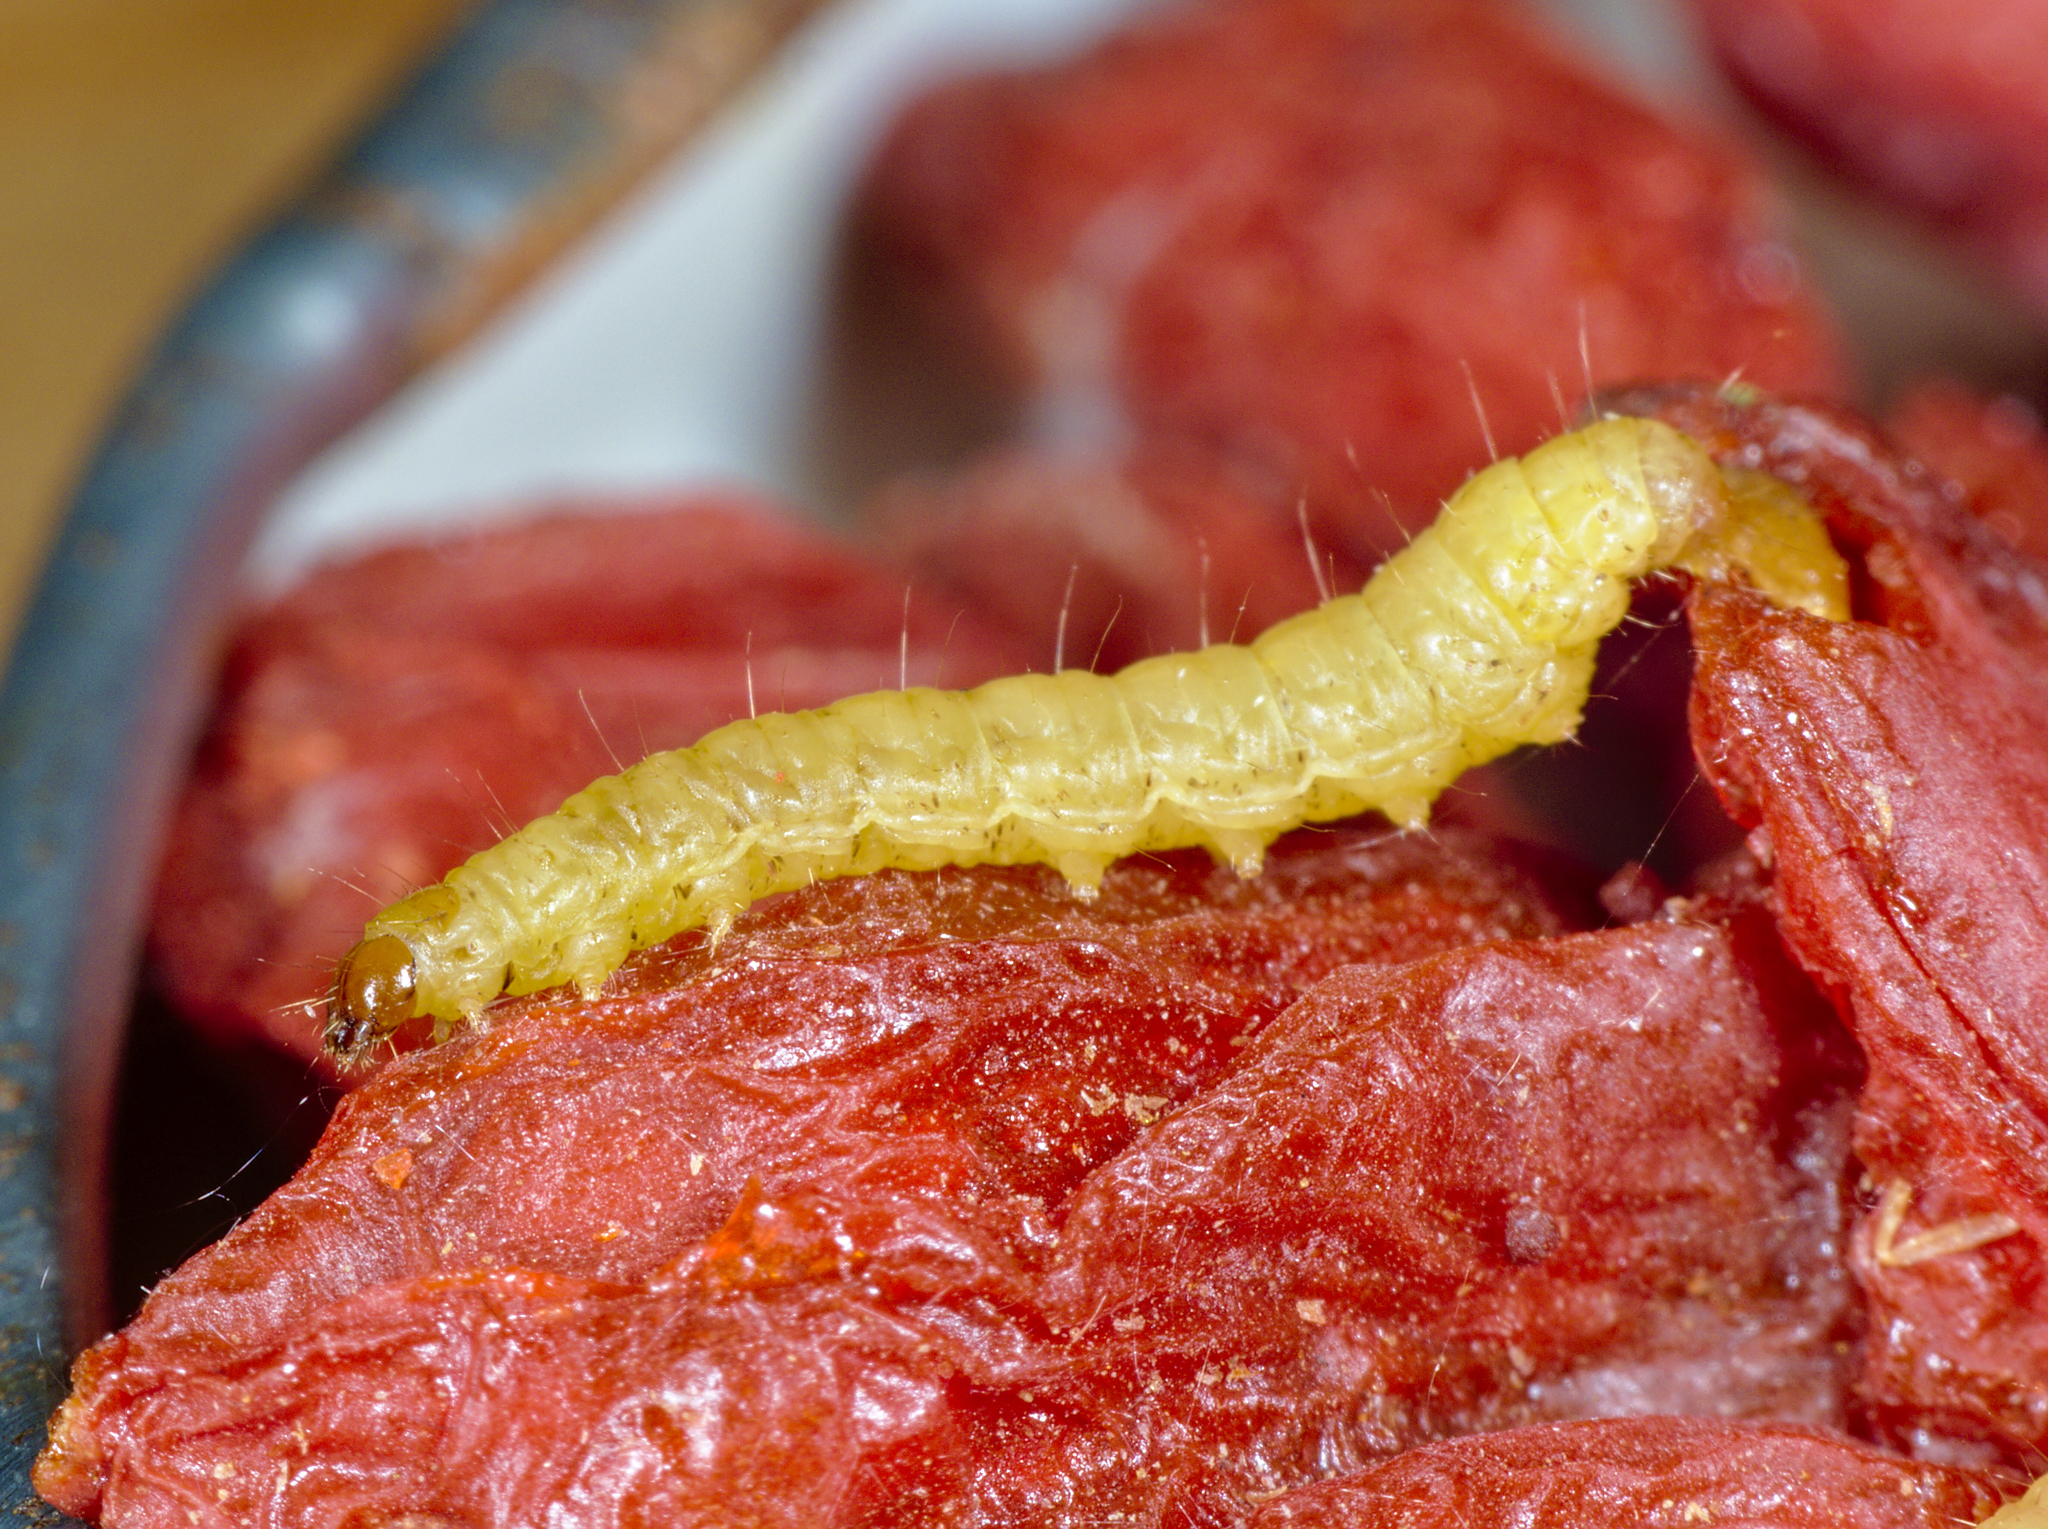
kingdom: Animalia
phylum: Arthropoda
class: Insecta
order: Lepidoptera
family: Pyralidae
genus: Plodia
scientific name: Plodia interpunctella
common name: Indian meal moth
